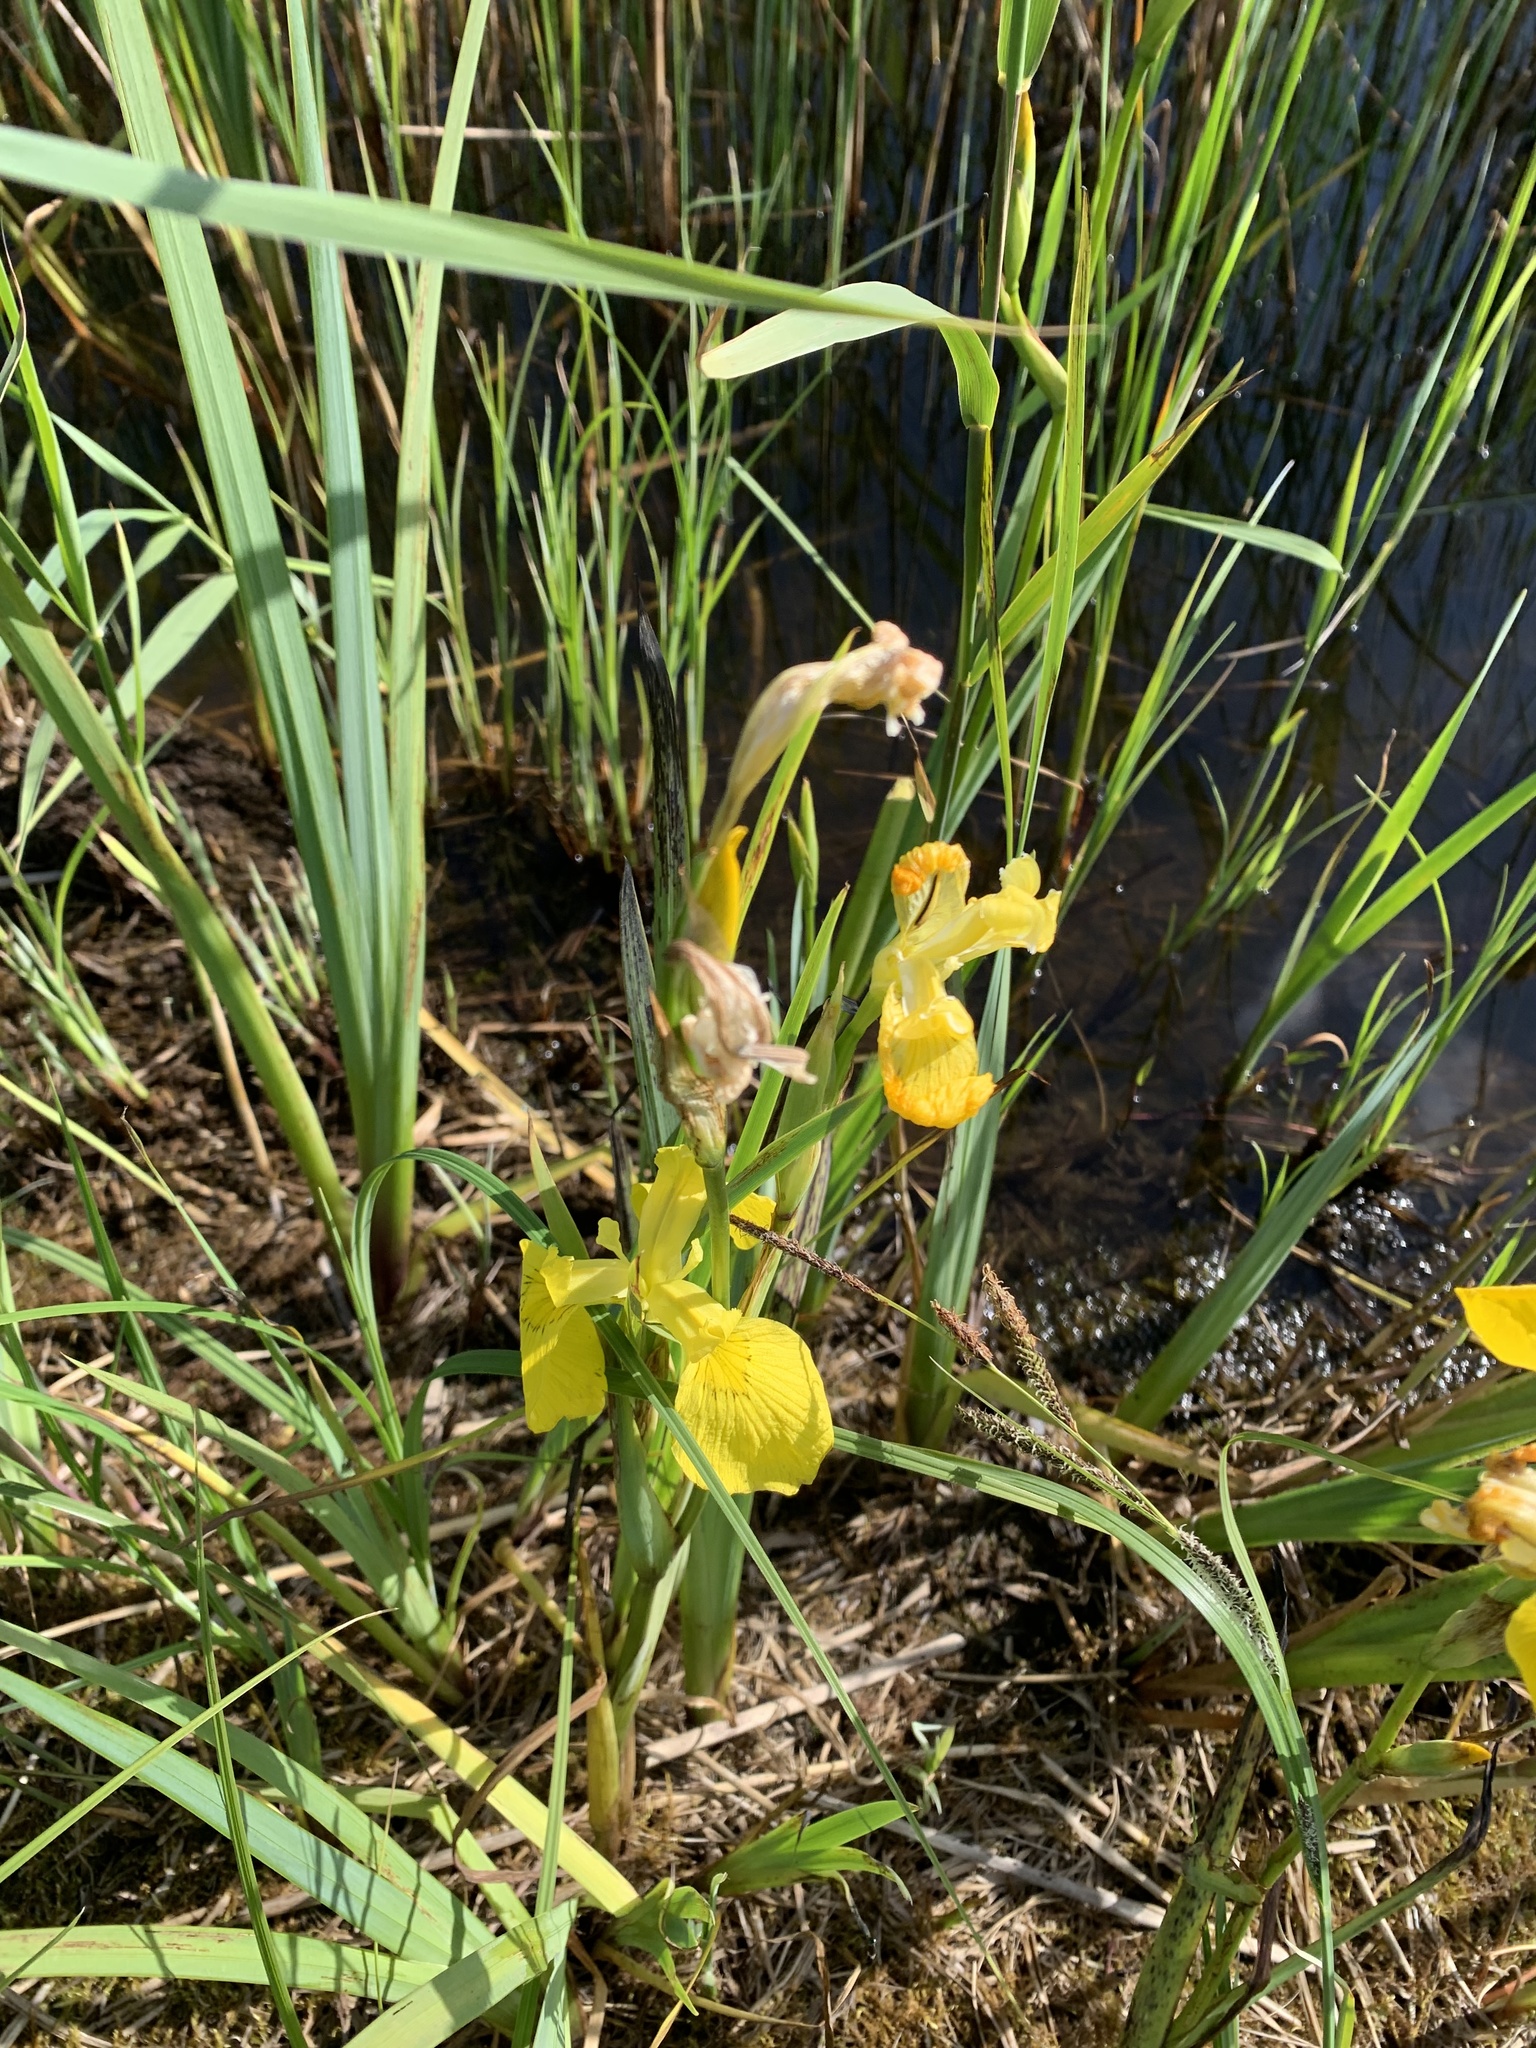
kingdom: Plantae
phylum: Tracheophyta
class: Liliopsida
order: Asparagales
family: Iridaceae
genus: Iris
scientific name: Iris pseudacorus
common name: Yellow flag
